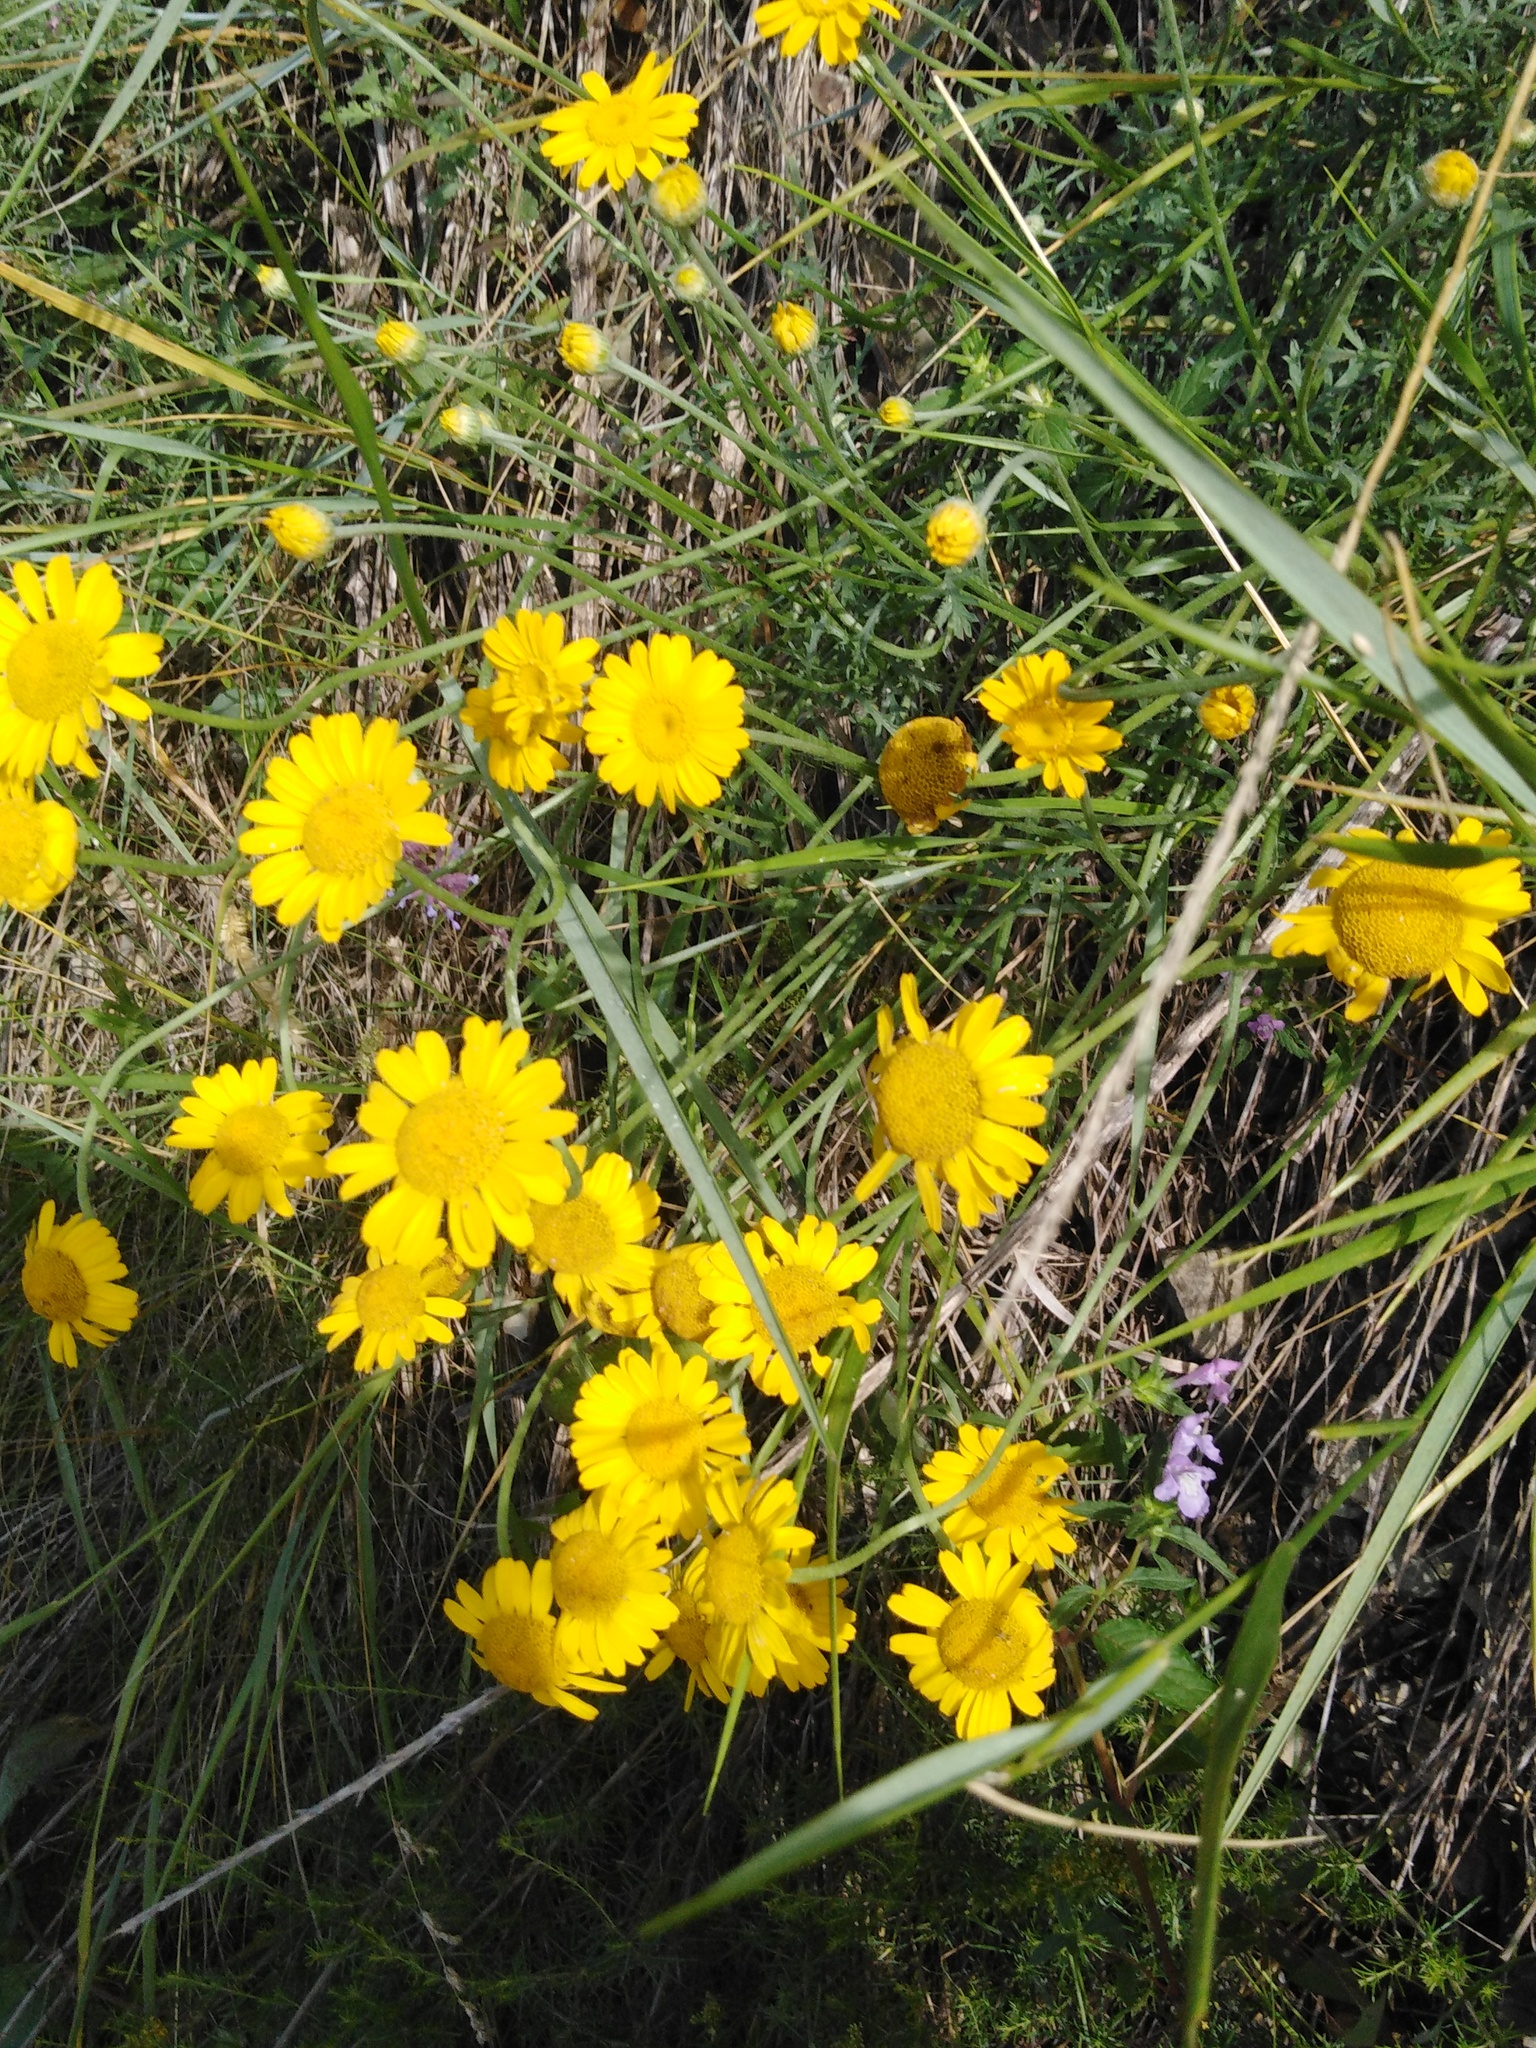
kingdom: Plantae
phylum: Tracheophyta
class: Magnoliopsida
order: Asterales
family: Asteraceae
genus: Cota
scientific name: Cota tinctoria
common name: Golden chamomile
